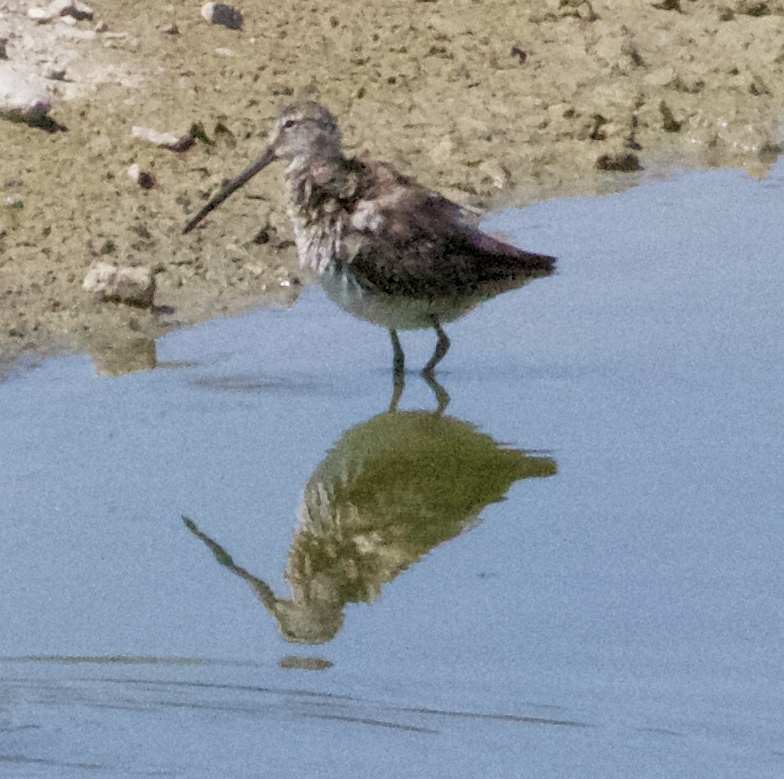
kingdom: Animalia
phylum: Chordata
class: Aves
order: Charadriiformes
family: Scolopacidae
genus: Limnodromus
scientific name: Limnodromus scolopaceus
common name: Long-billed dowitcher
